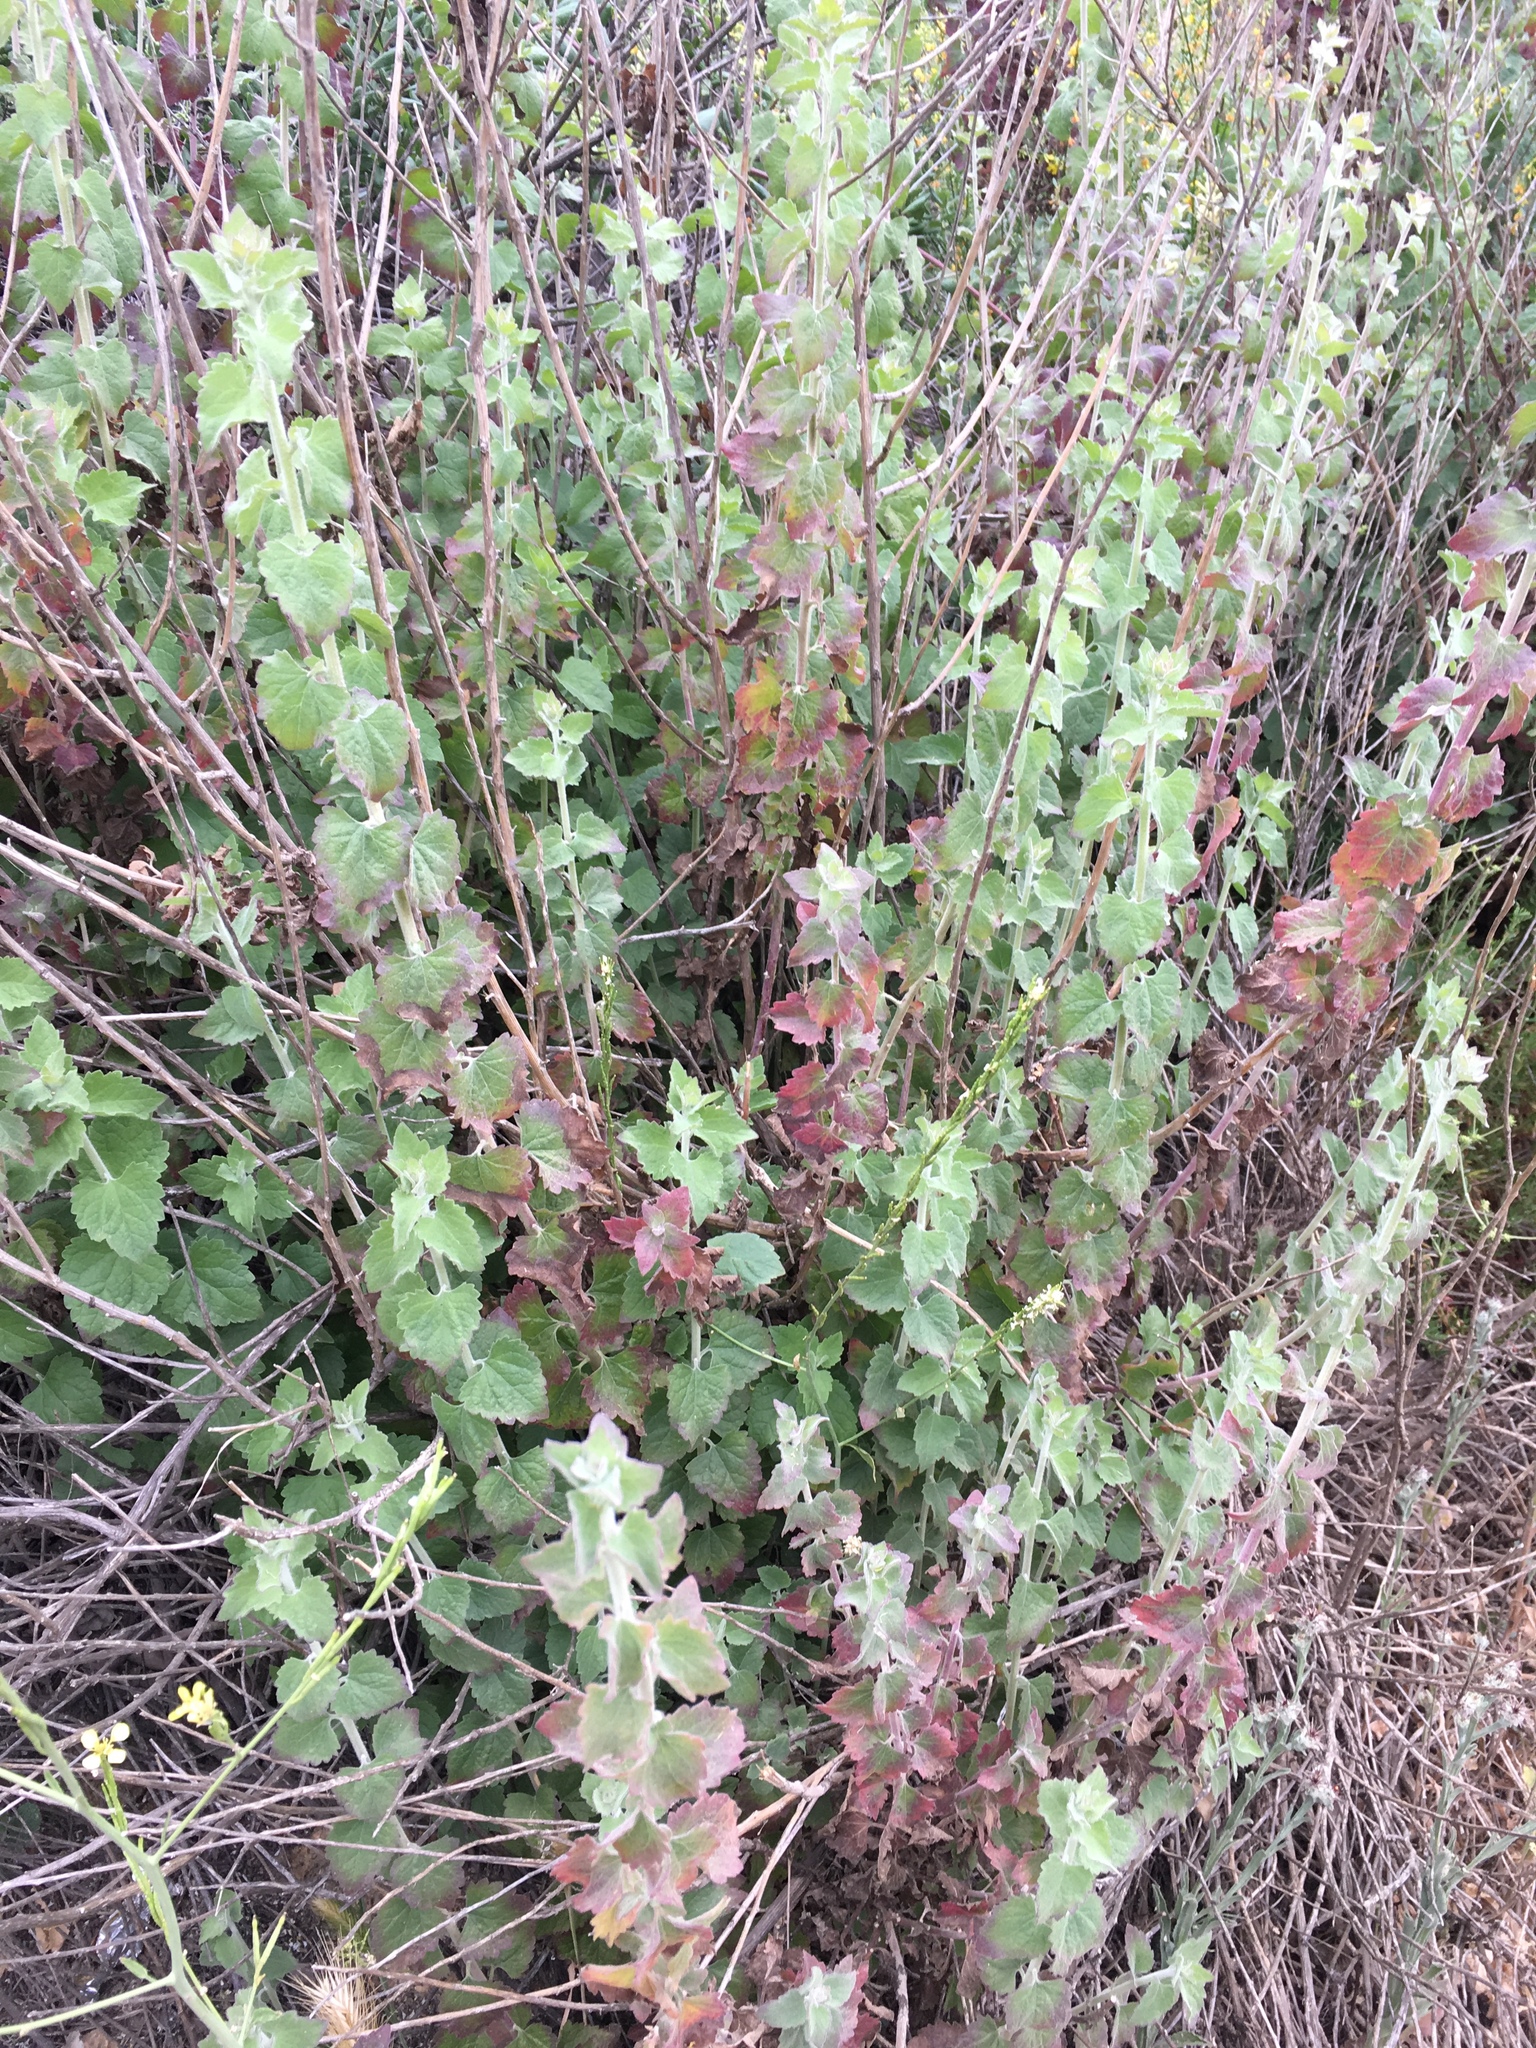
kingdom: Plantae
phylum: Tracheophyta
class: Magnoliopsida
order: Asterales
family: Asteraceae
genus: Brickellia
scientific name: Brickellia californica
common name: California brickellbush
